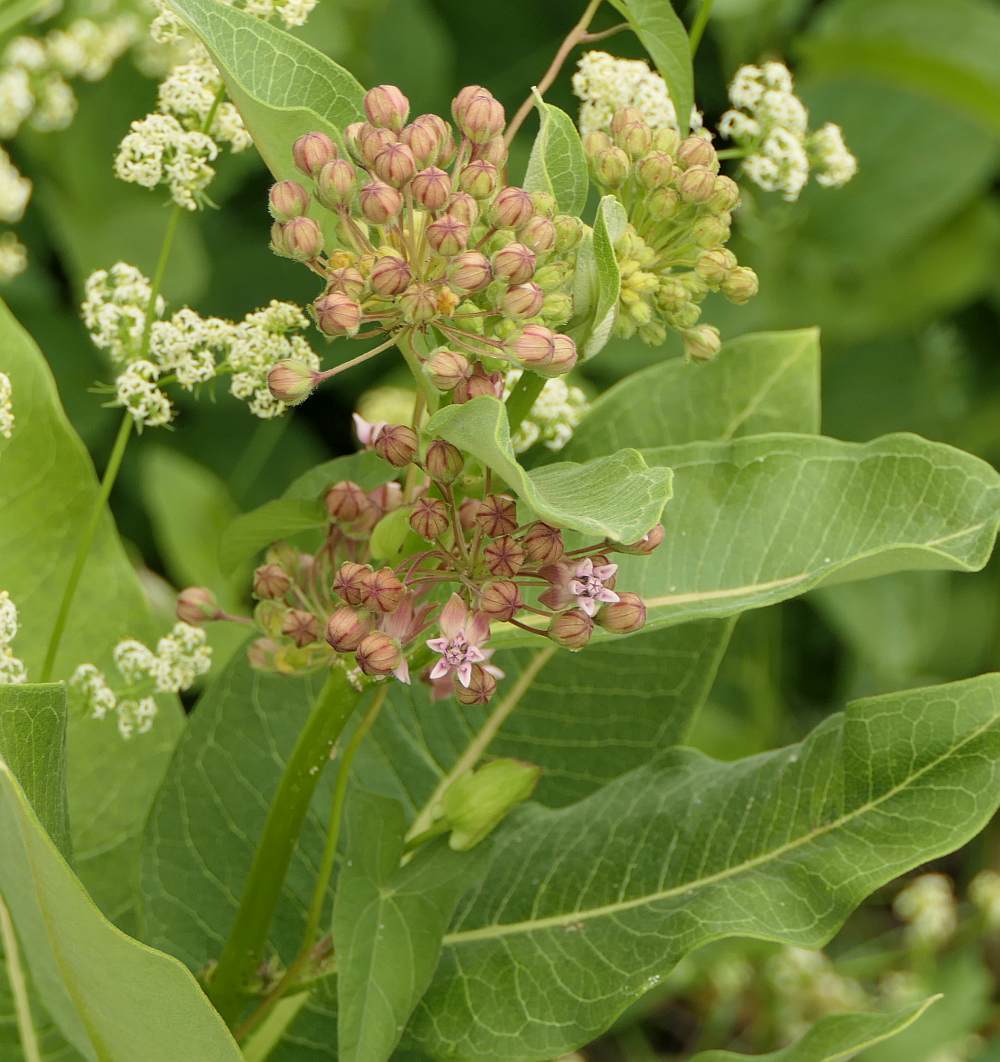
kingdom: Plantae
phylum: Tracheophyta
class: Magnoliopsida
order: Gentianales
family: Apocynaceae
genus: Asclepias
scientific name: Asclepias syriaca
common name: Common milkweed
